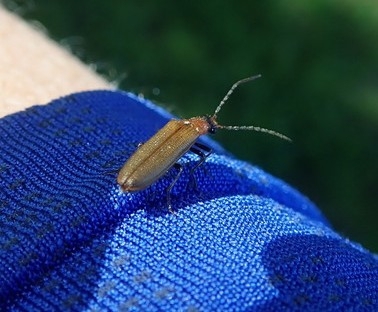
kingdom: Animalia
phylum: Arthropoda
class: Insecta
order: Coleoptera
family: Elateridae
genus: Denticollis
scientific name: Denticollis linearis
